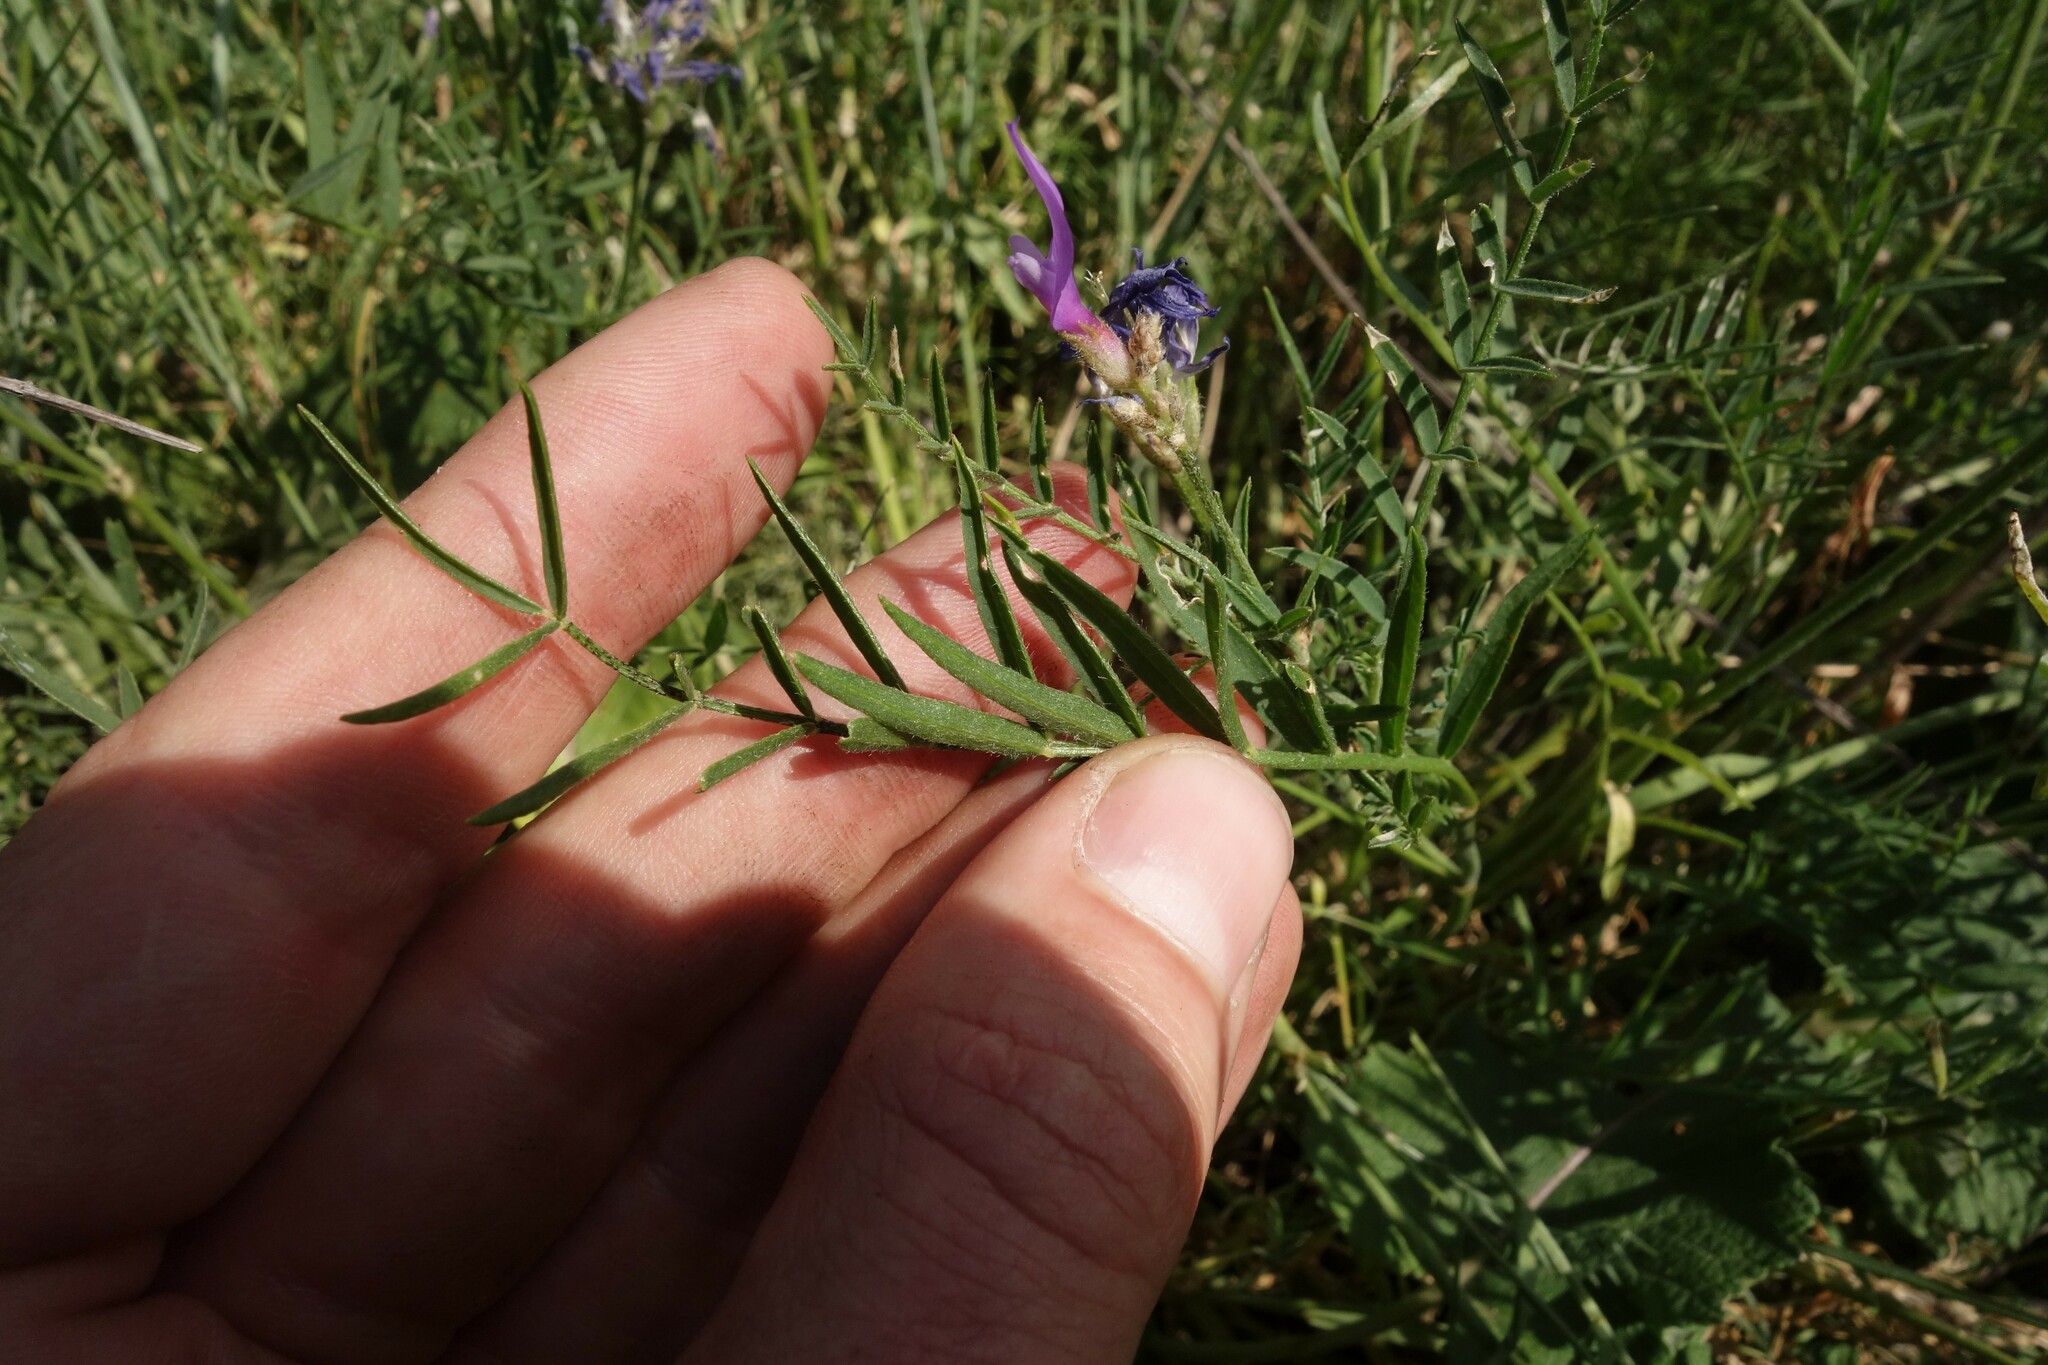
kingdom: Plantae
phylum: Tracheophyta
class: Magnoliopsida
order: Fabales
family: Fabaceae
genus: Astragalus
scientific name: Astragalus onobrychis
